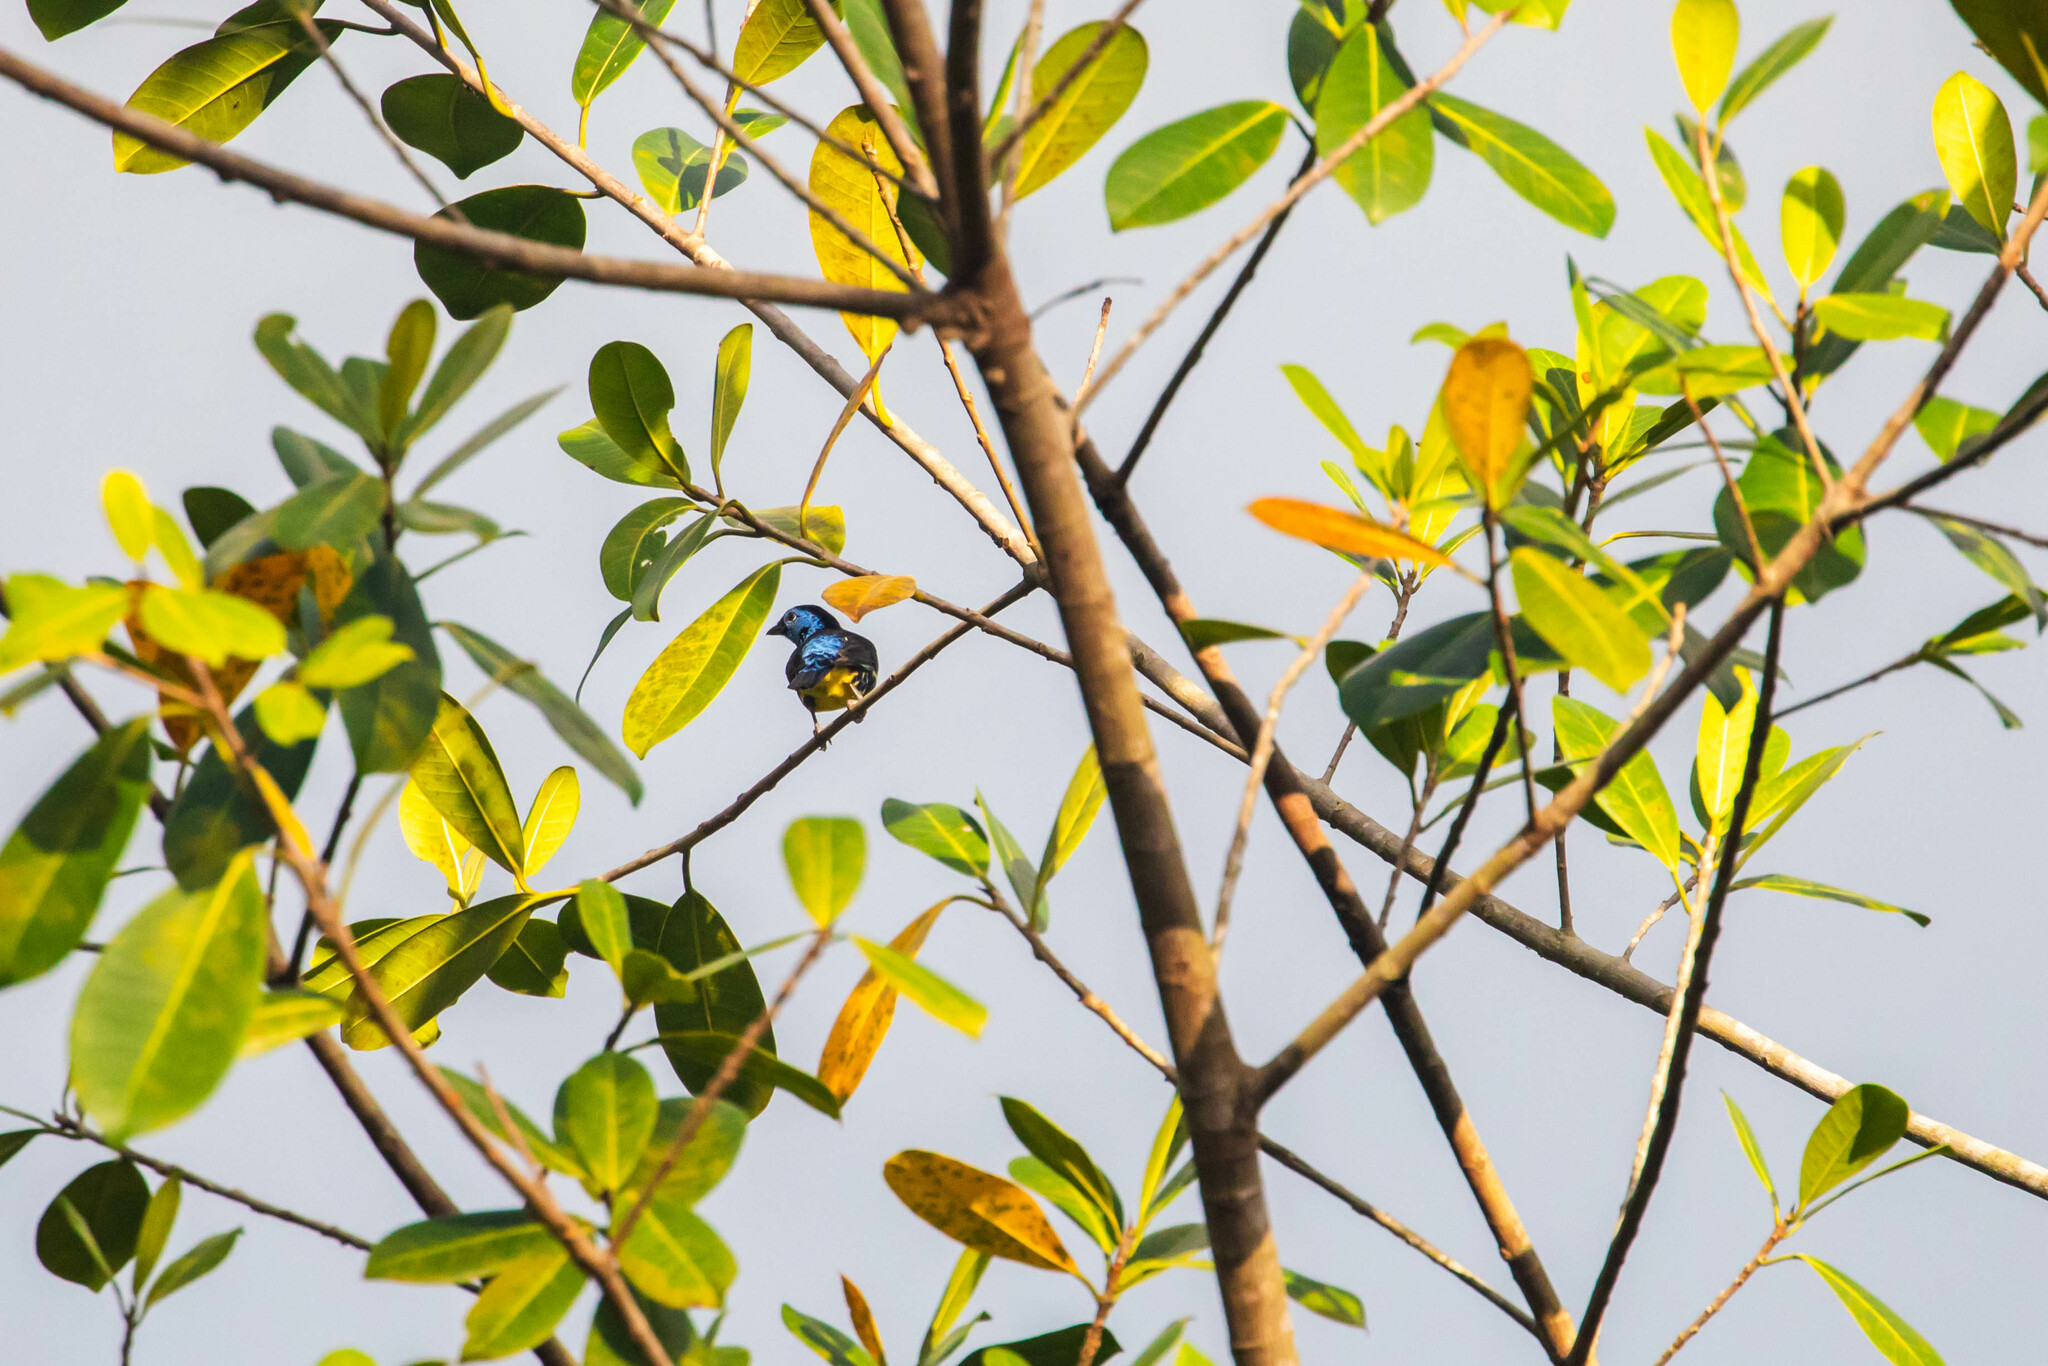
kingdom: Animalia
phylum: Chordata
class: Aves
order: Passeriformes
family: Thraupidae
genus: Tangara
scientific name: Tangara mexicana
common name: Turquoise tanager
